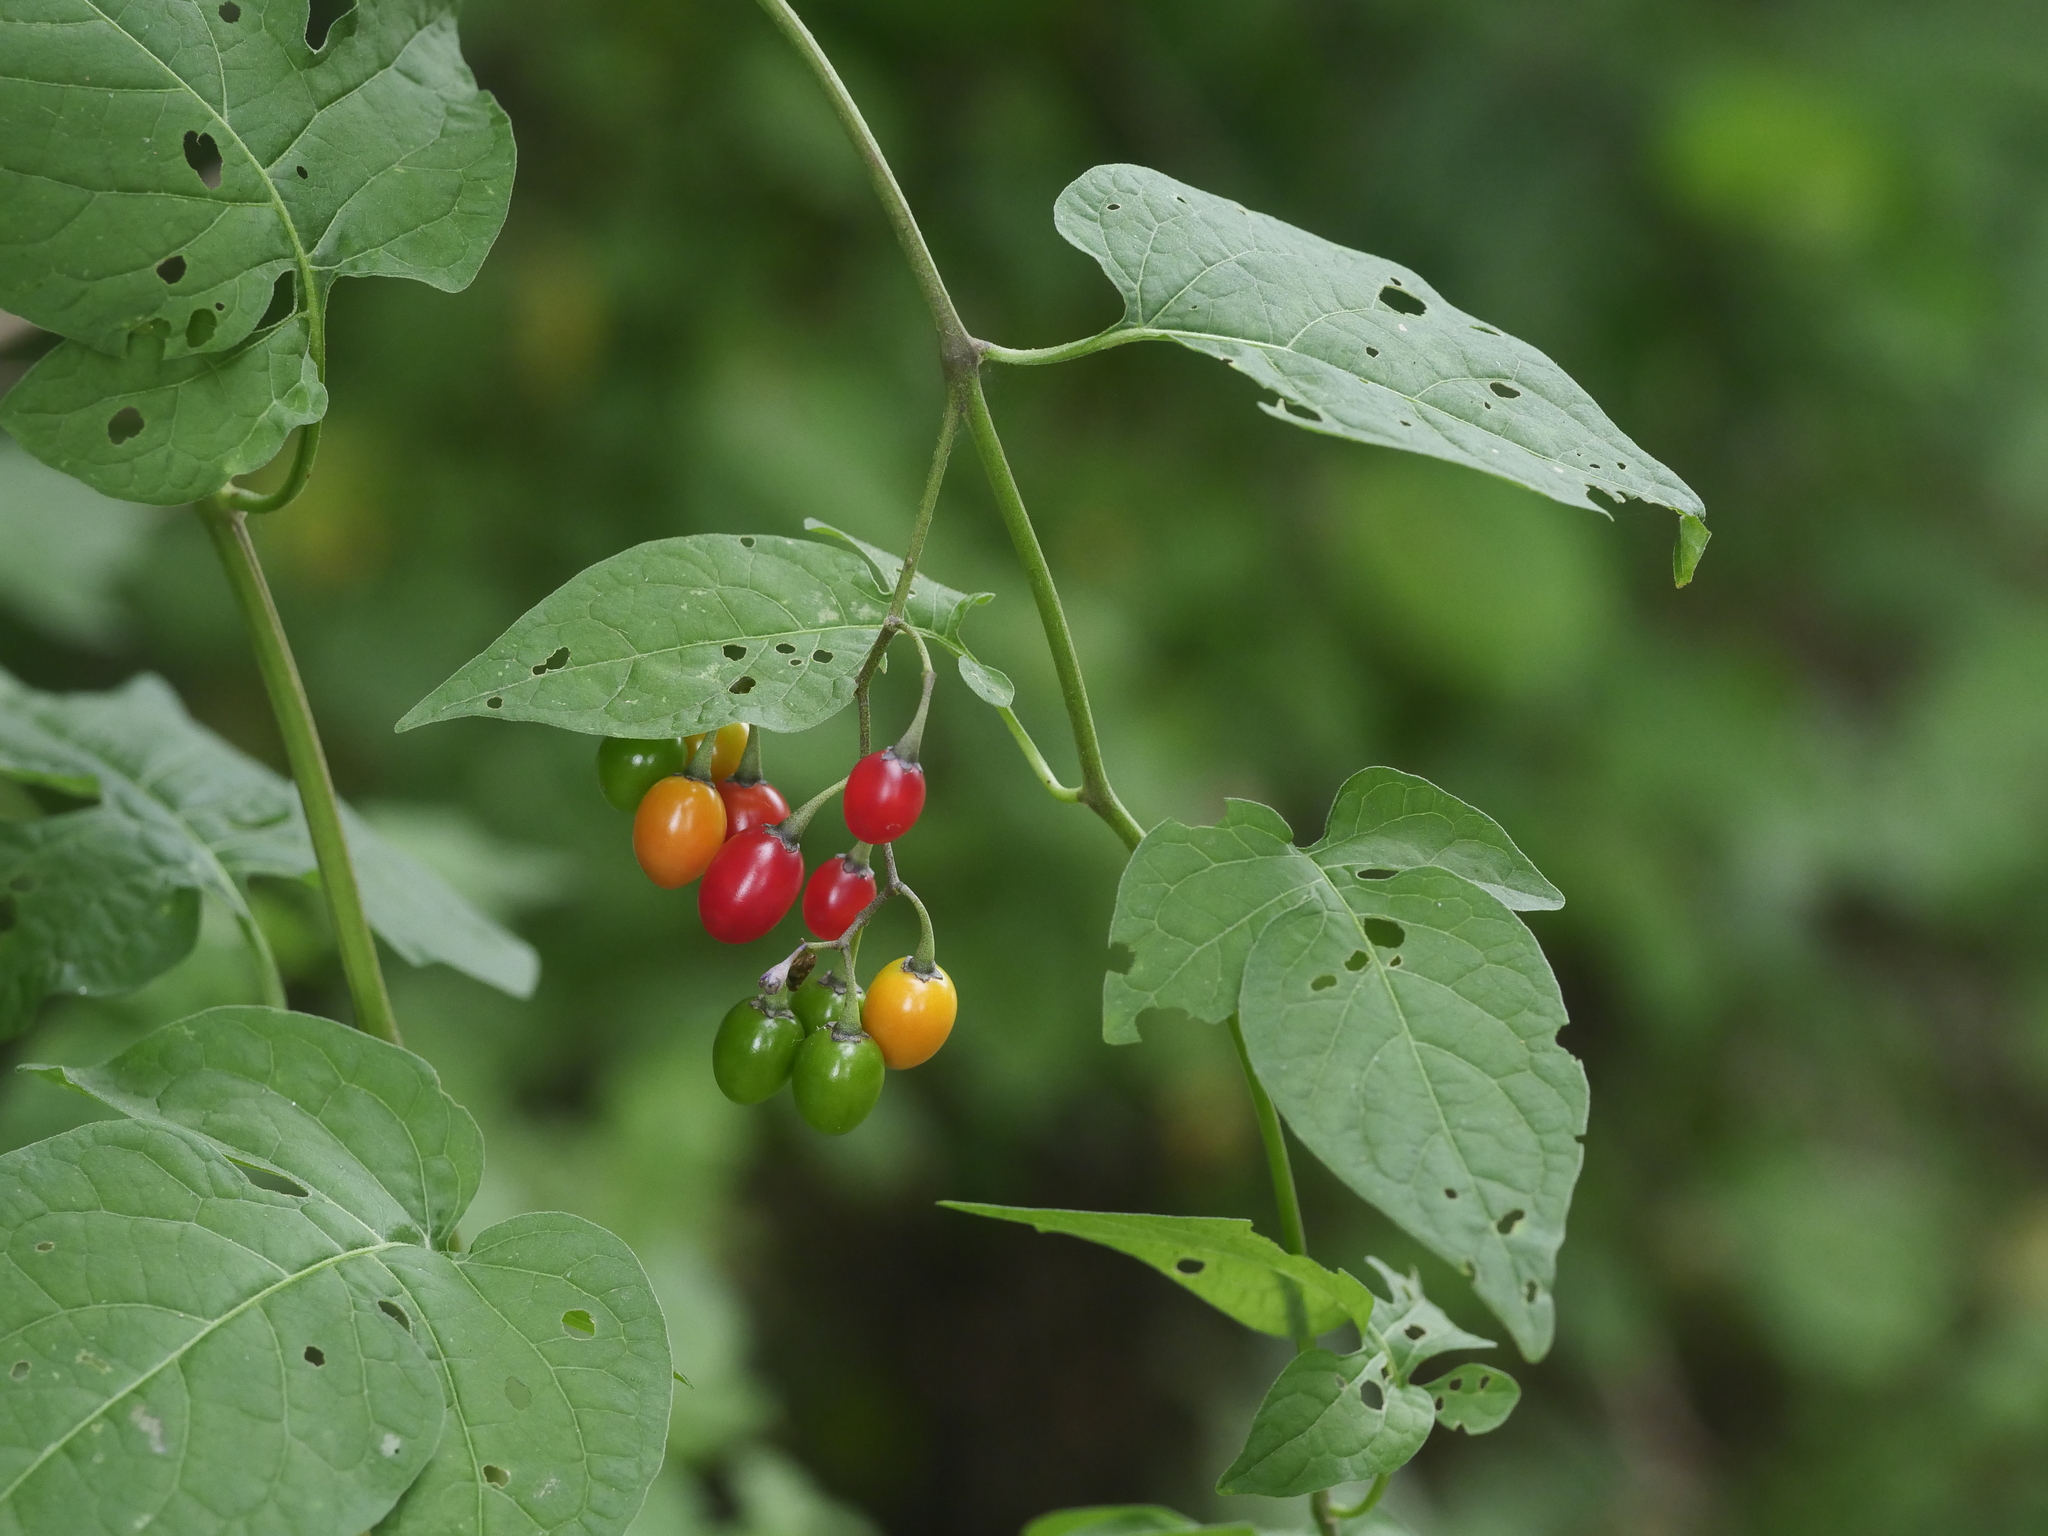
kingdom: Plantae
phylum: Tracheophyta
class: Magnoliopsida
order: Solanales
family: Solanaceae
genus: Solanum
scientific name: Solanum dulcamara
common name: Climbing nightshade
